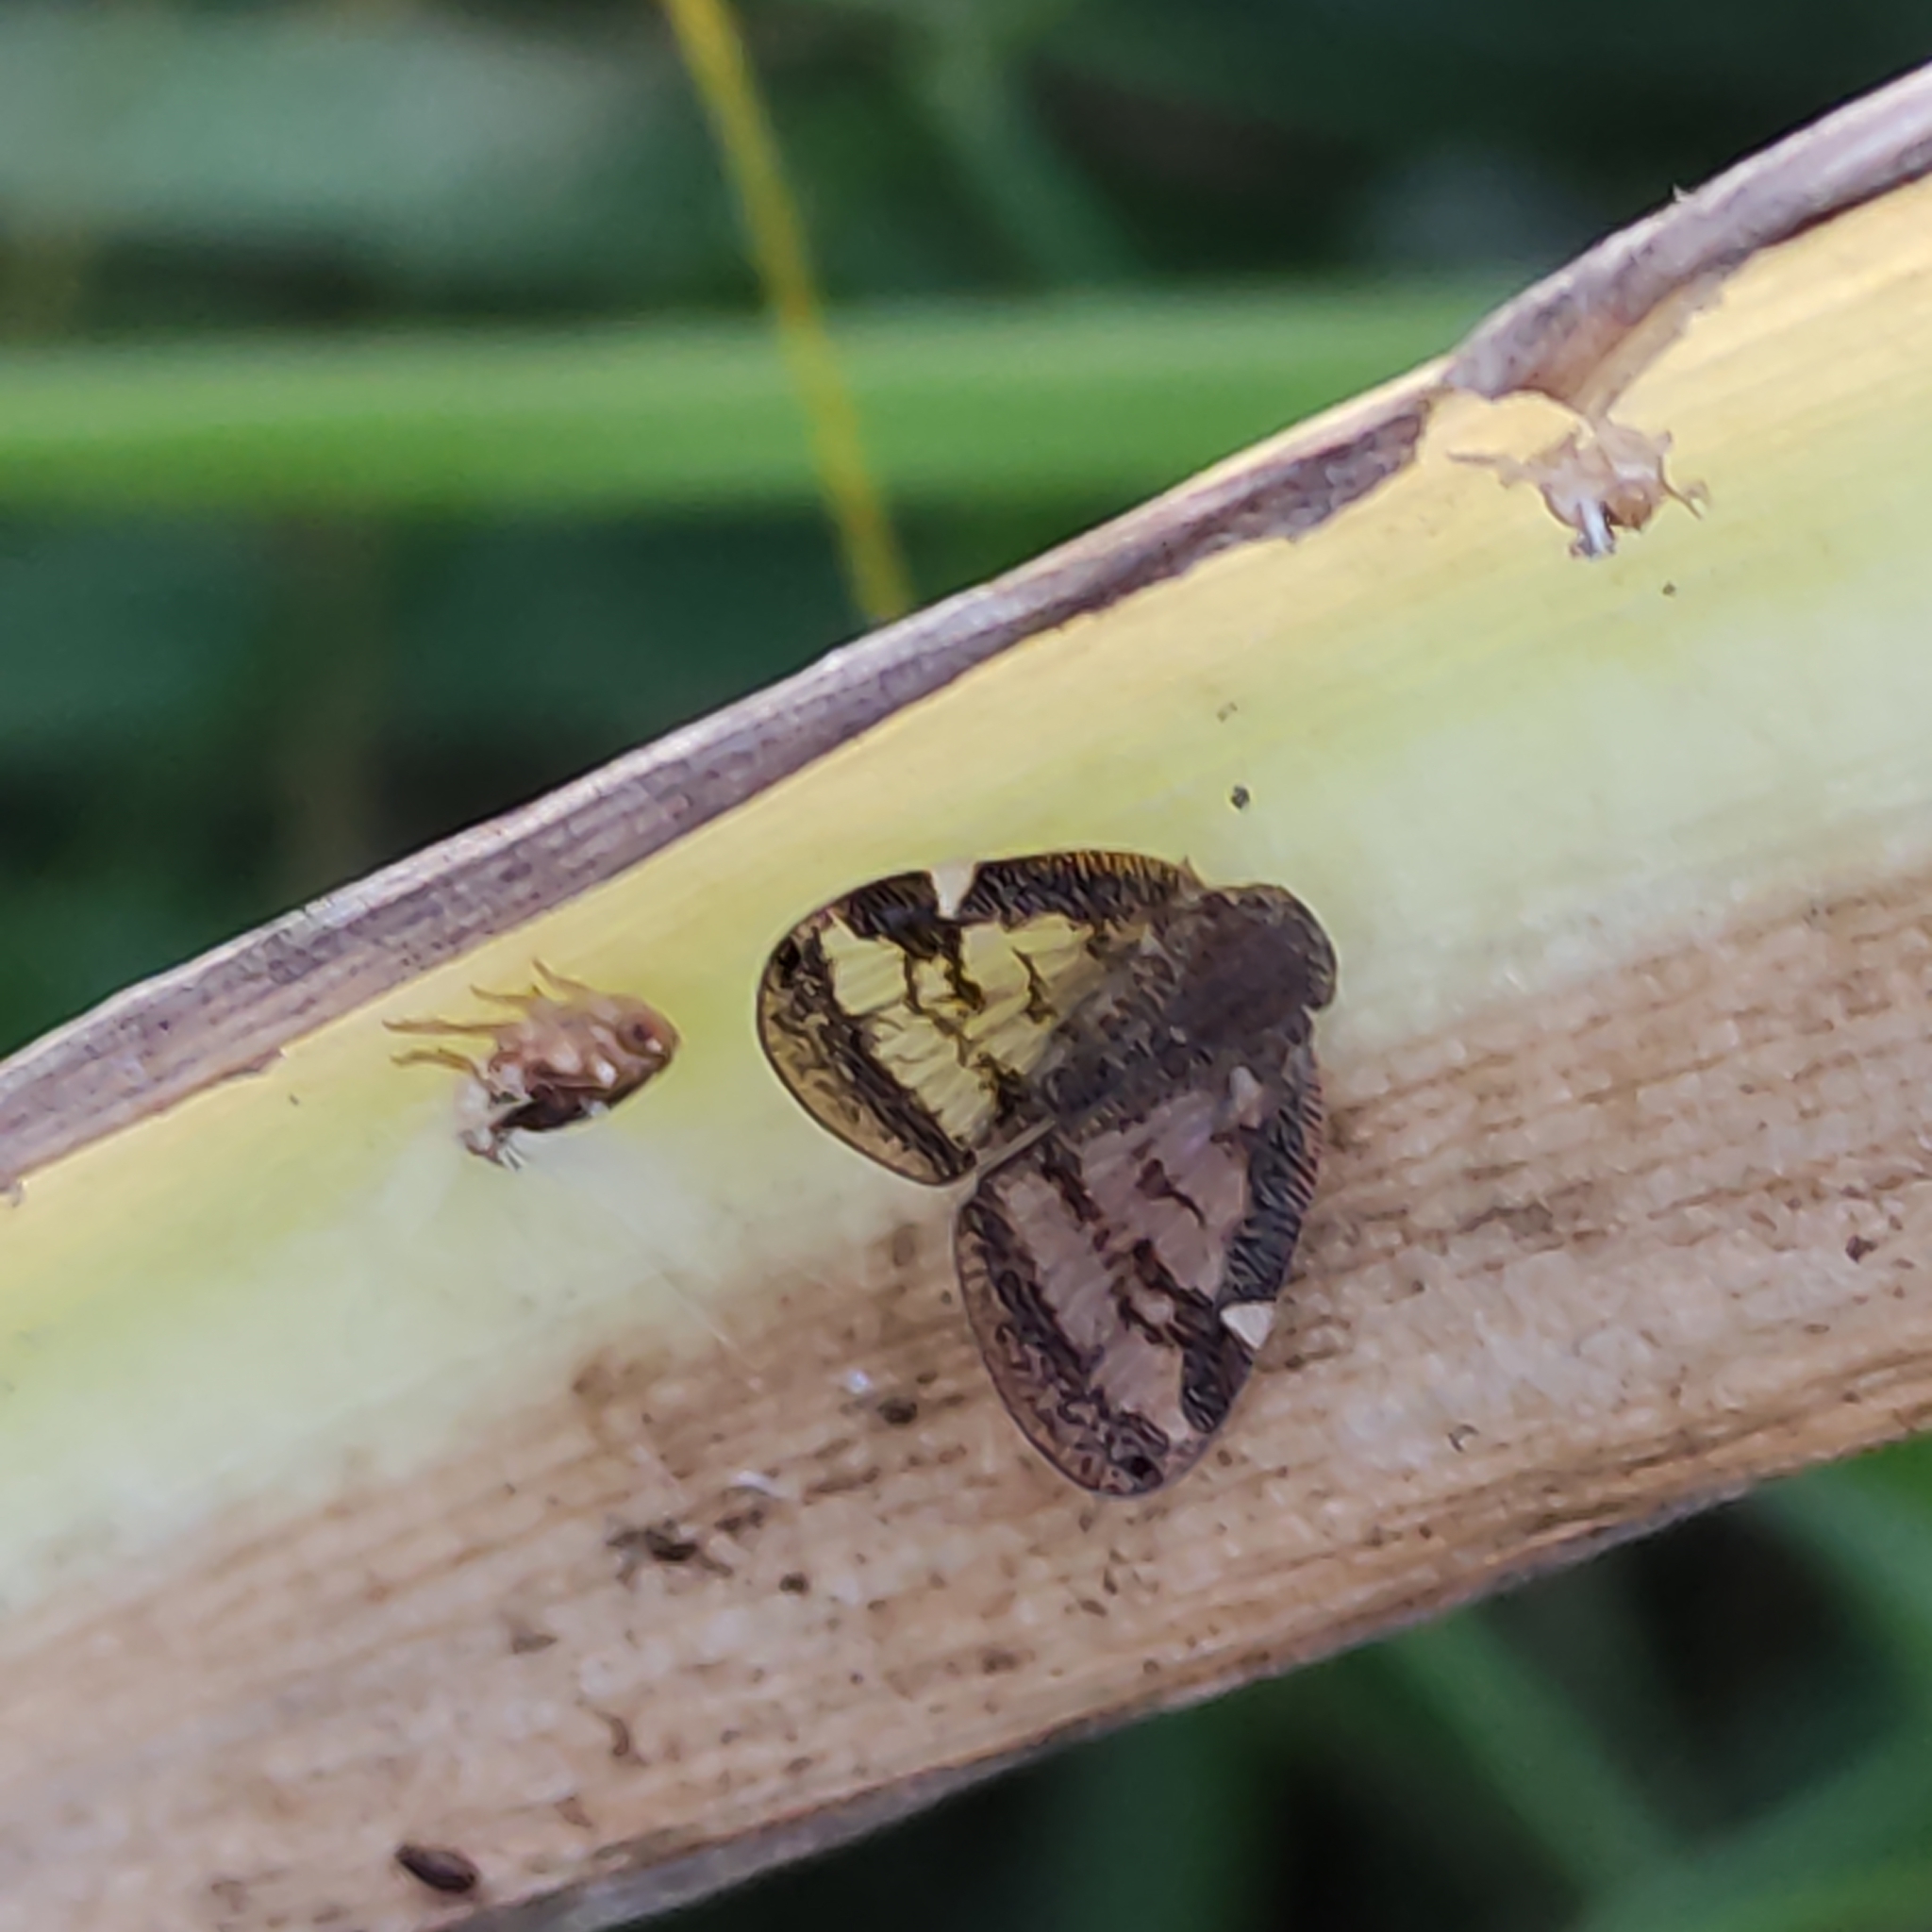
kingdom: Animalia
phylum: Arthropoda
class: Insecta
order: Hemiptera
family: Ricaniidae
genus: Scolypopa
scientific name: Scolypopa australis
